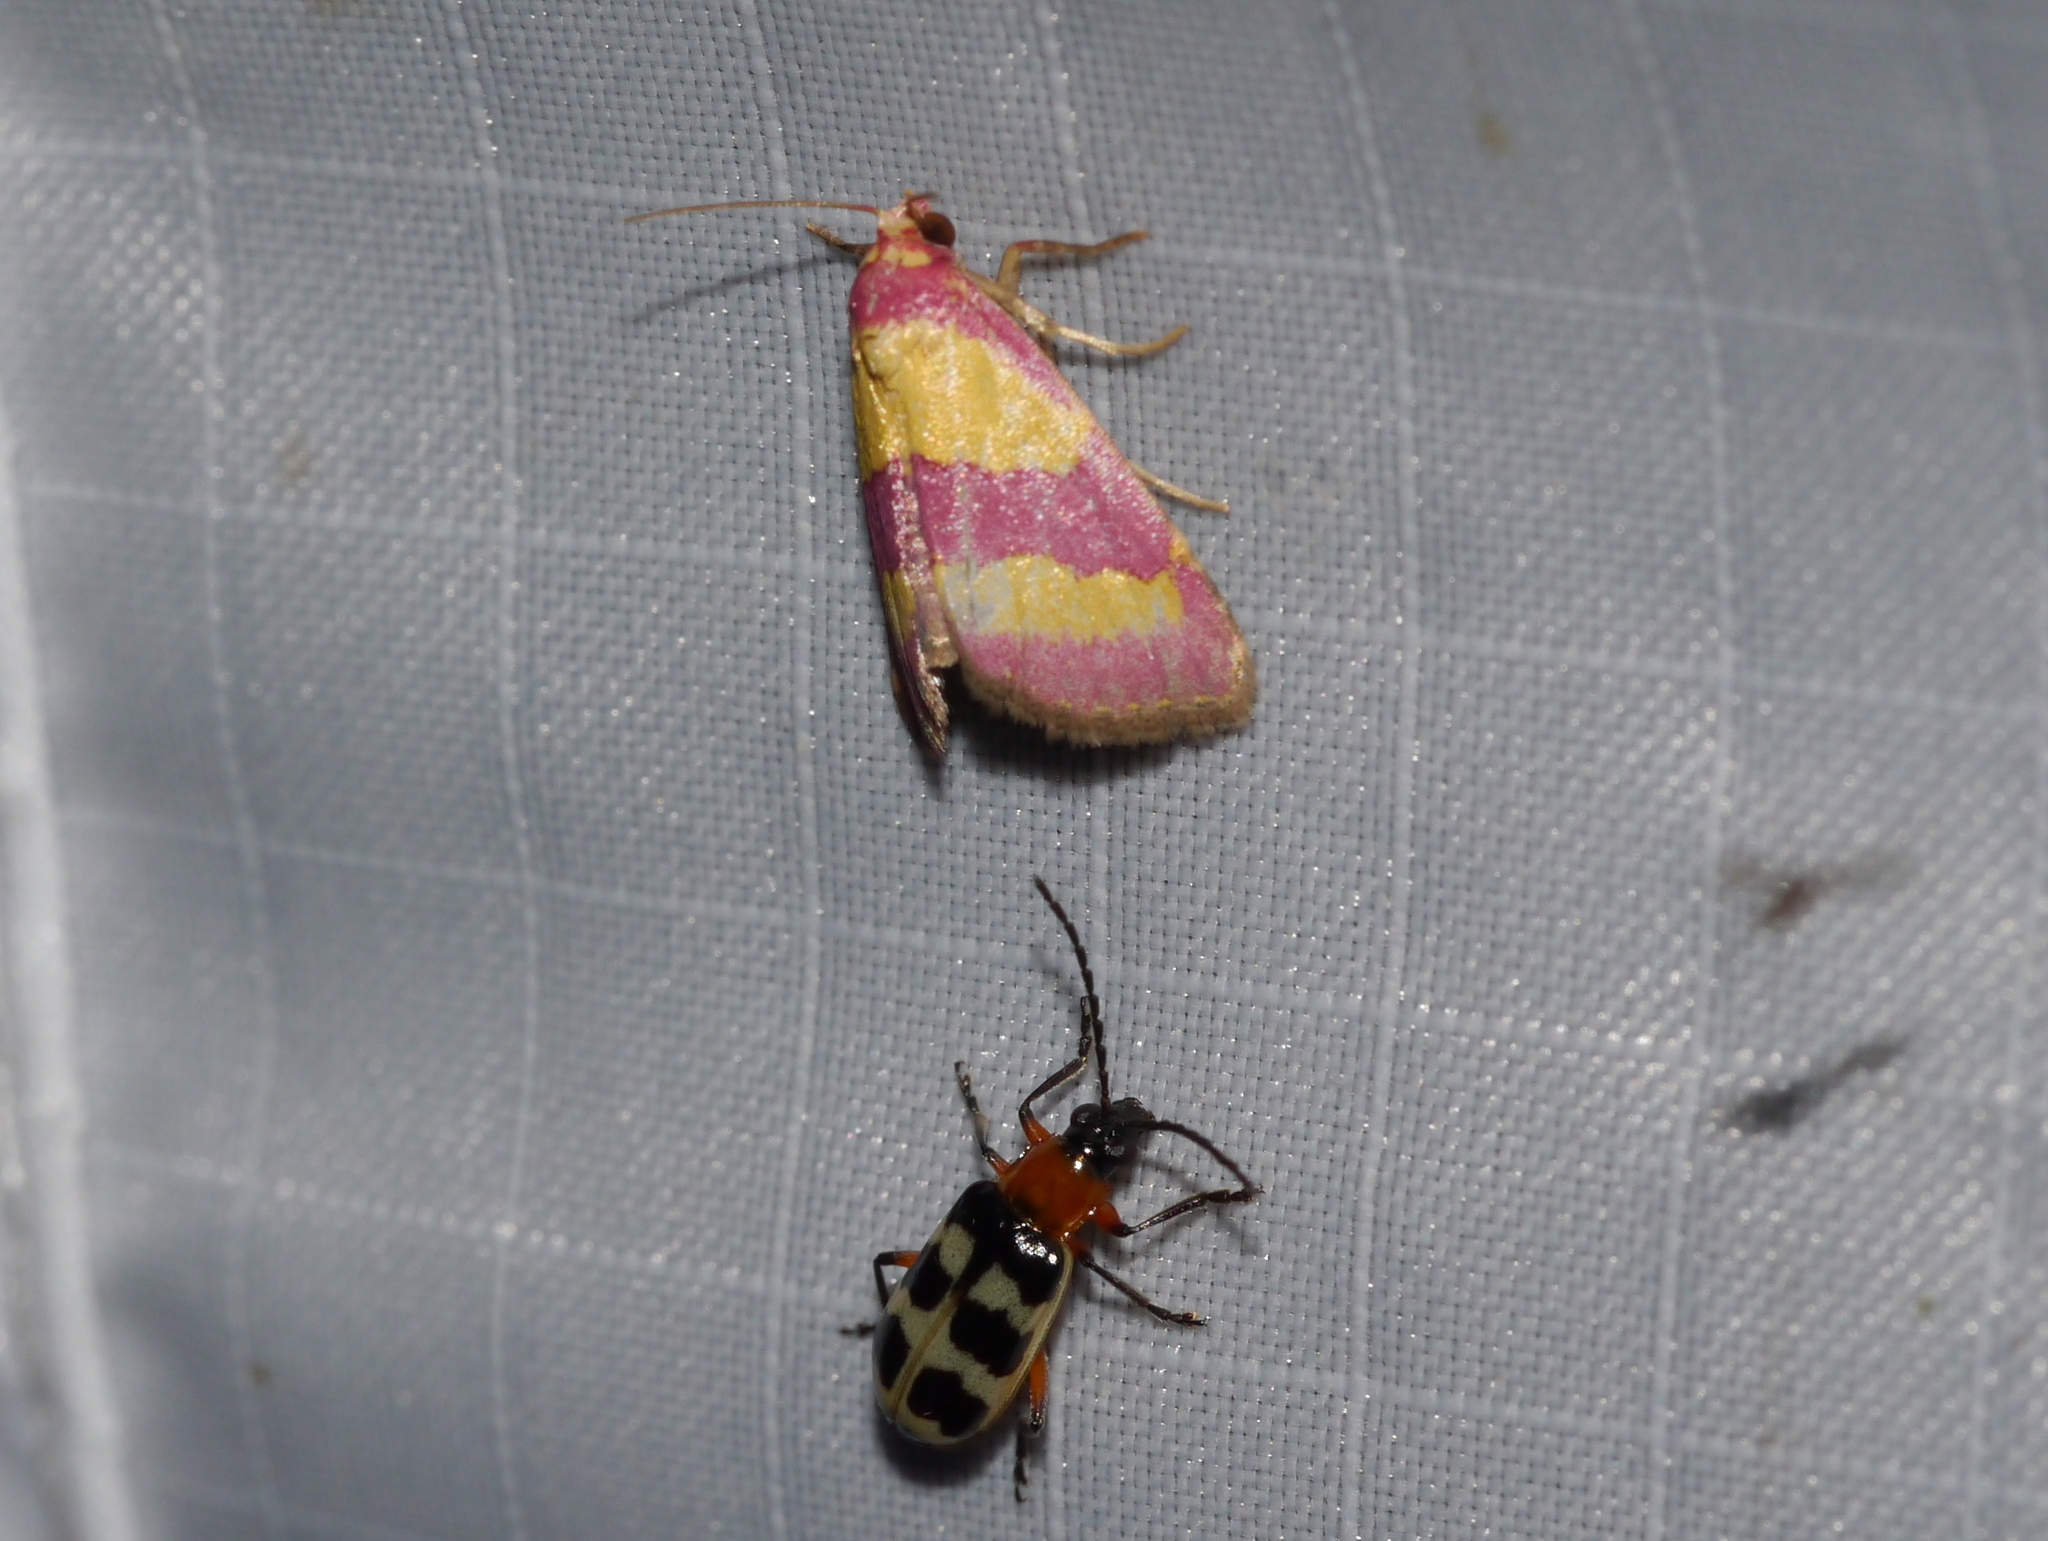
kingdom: Animalia
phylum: Arthropoda
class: Insecta
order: Lepidoptera
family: Noctuidae
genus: Phoenicophanta
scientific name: Phoenicophanta bicolor
